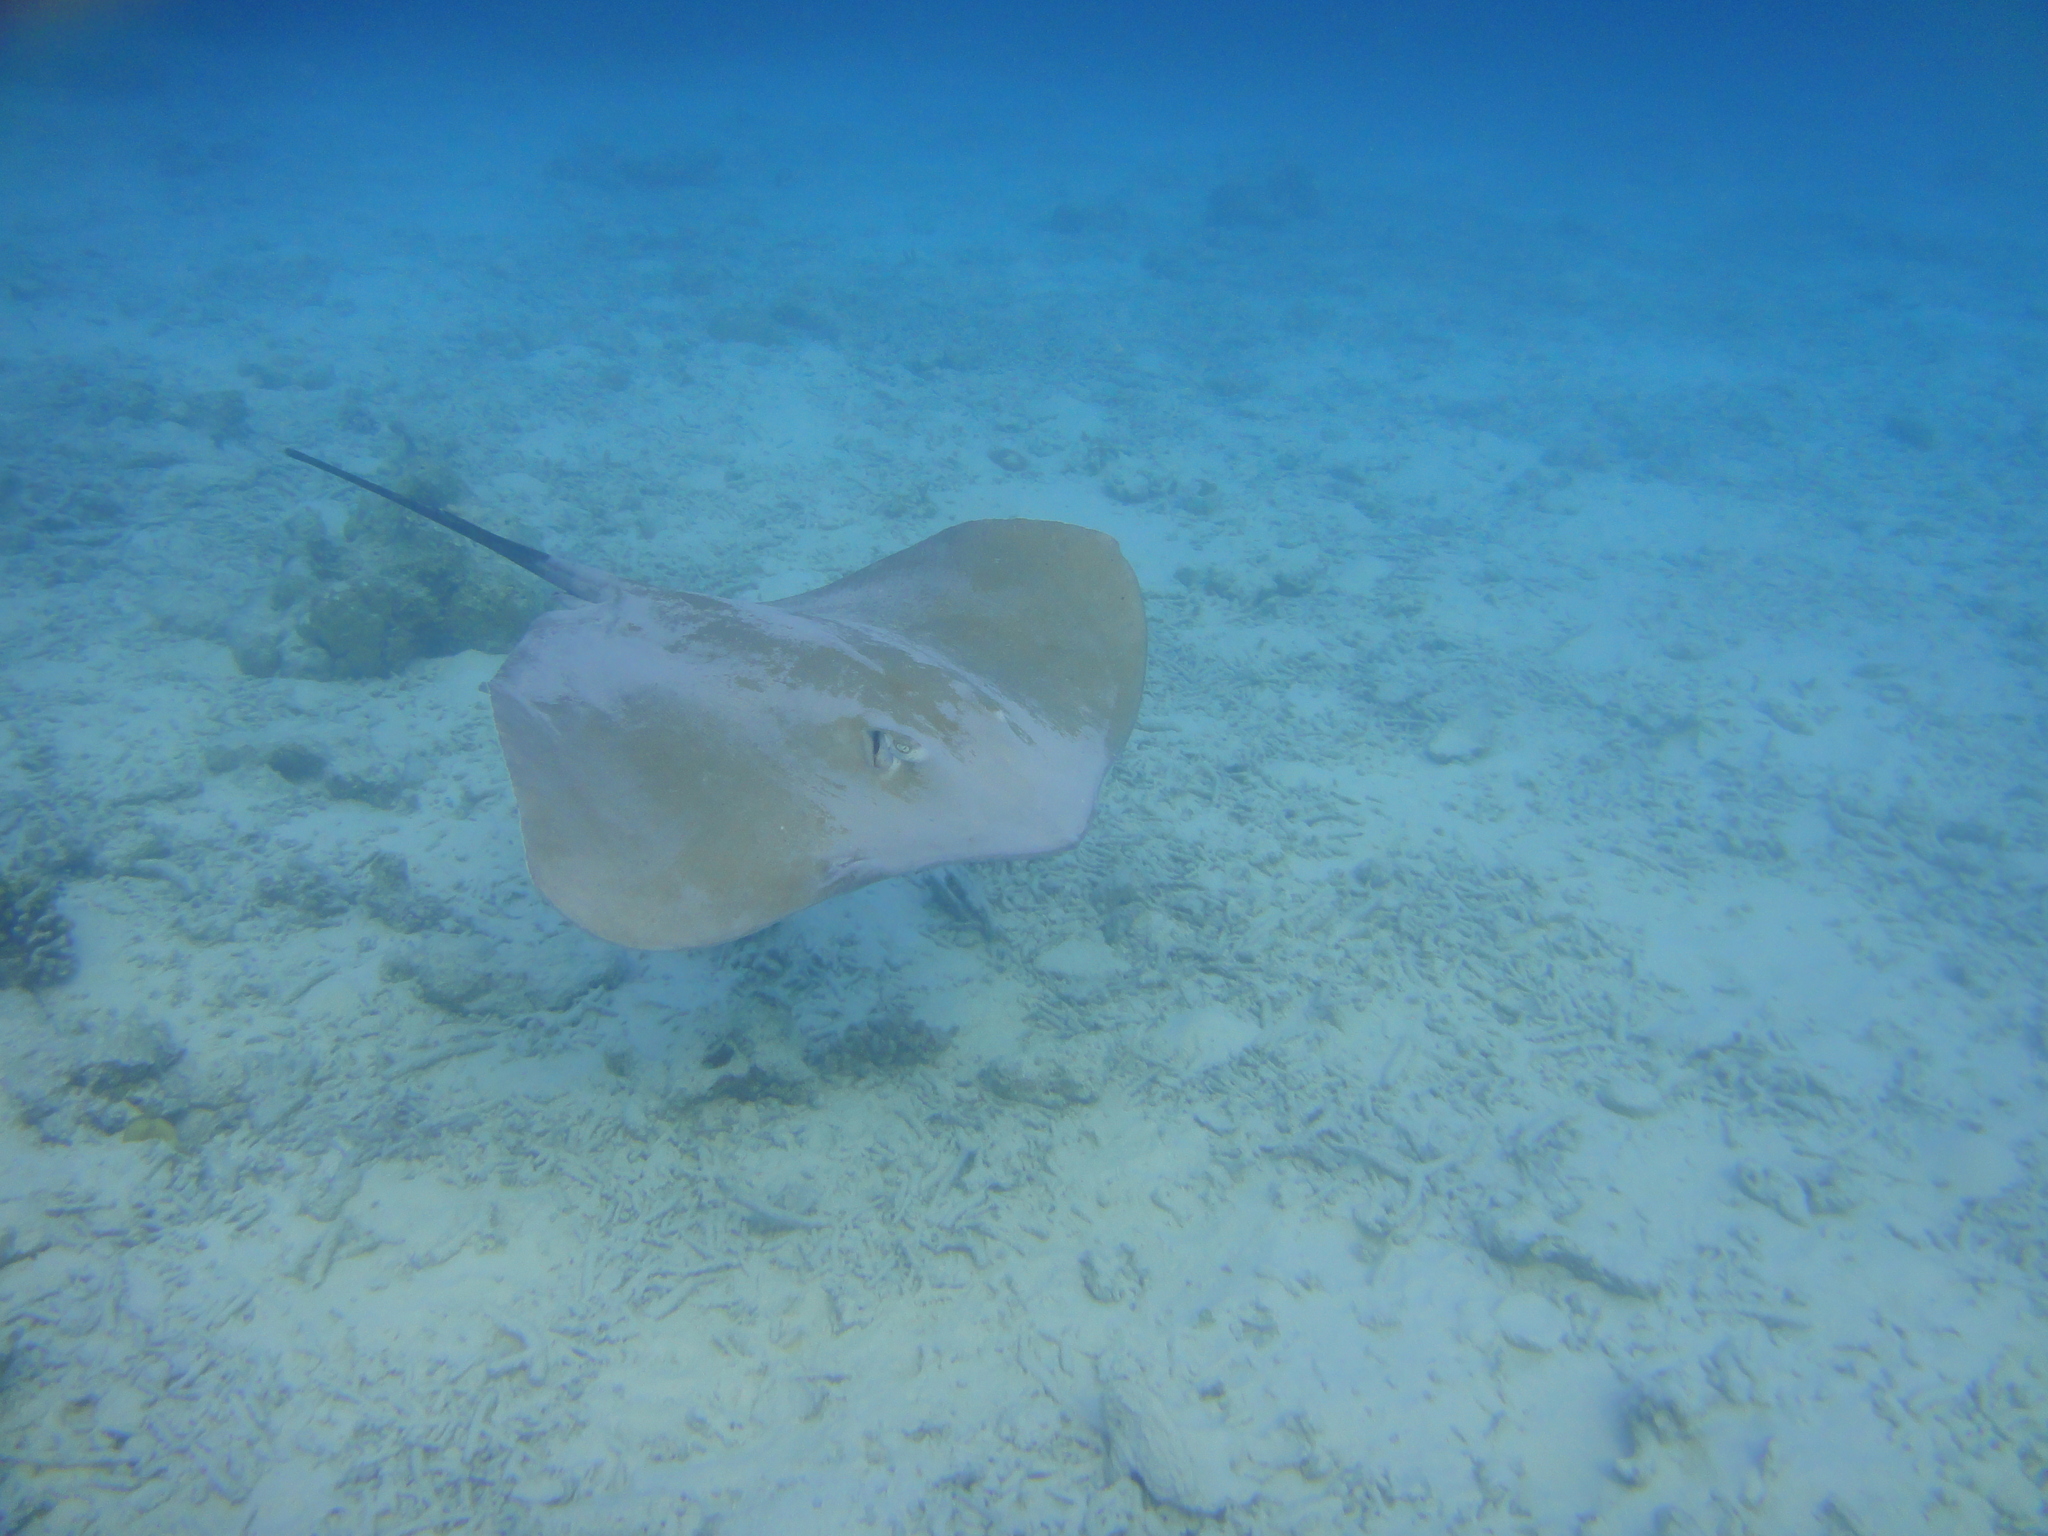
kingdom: Animalia
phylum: Chordata
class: Elasmobranchii
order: Myliobatiformes
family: Dasyatidae
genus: Pateobatis
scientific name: Pateobatis fai
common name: Pink whipray
